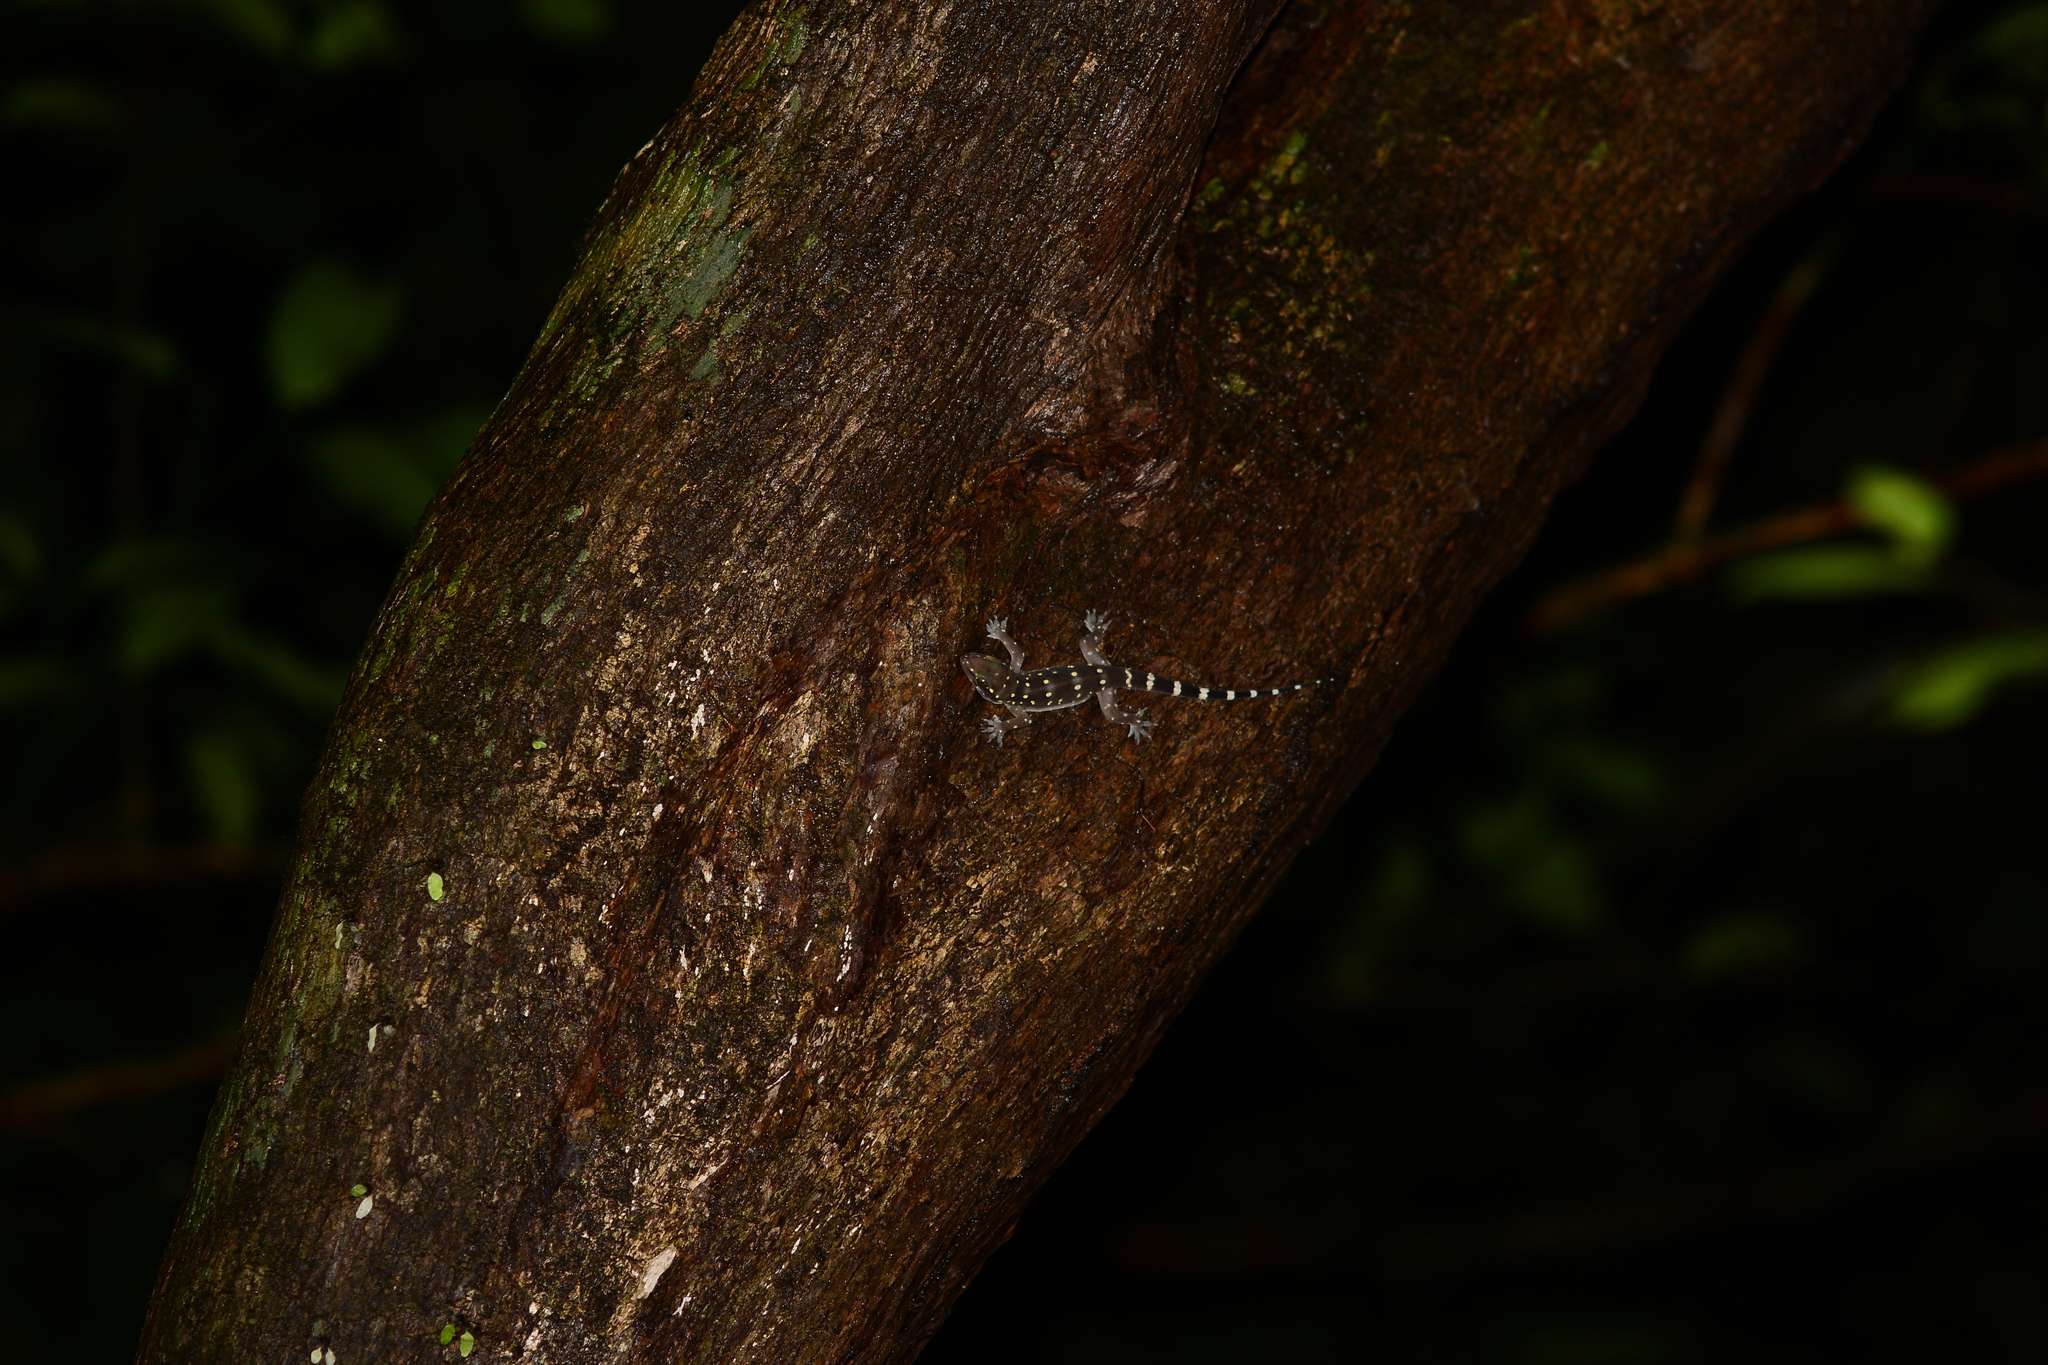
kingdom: Animalia
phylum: Chordata
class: Squamata
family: Gekkonidae
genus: Hemidactylus
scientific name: Hemidactylus prashadi
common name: Bombay leaf-toed gecko
